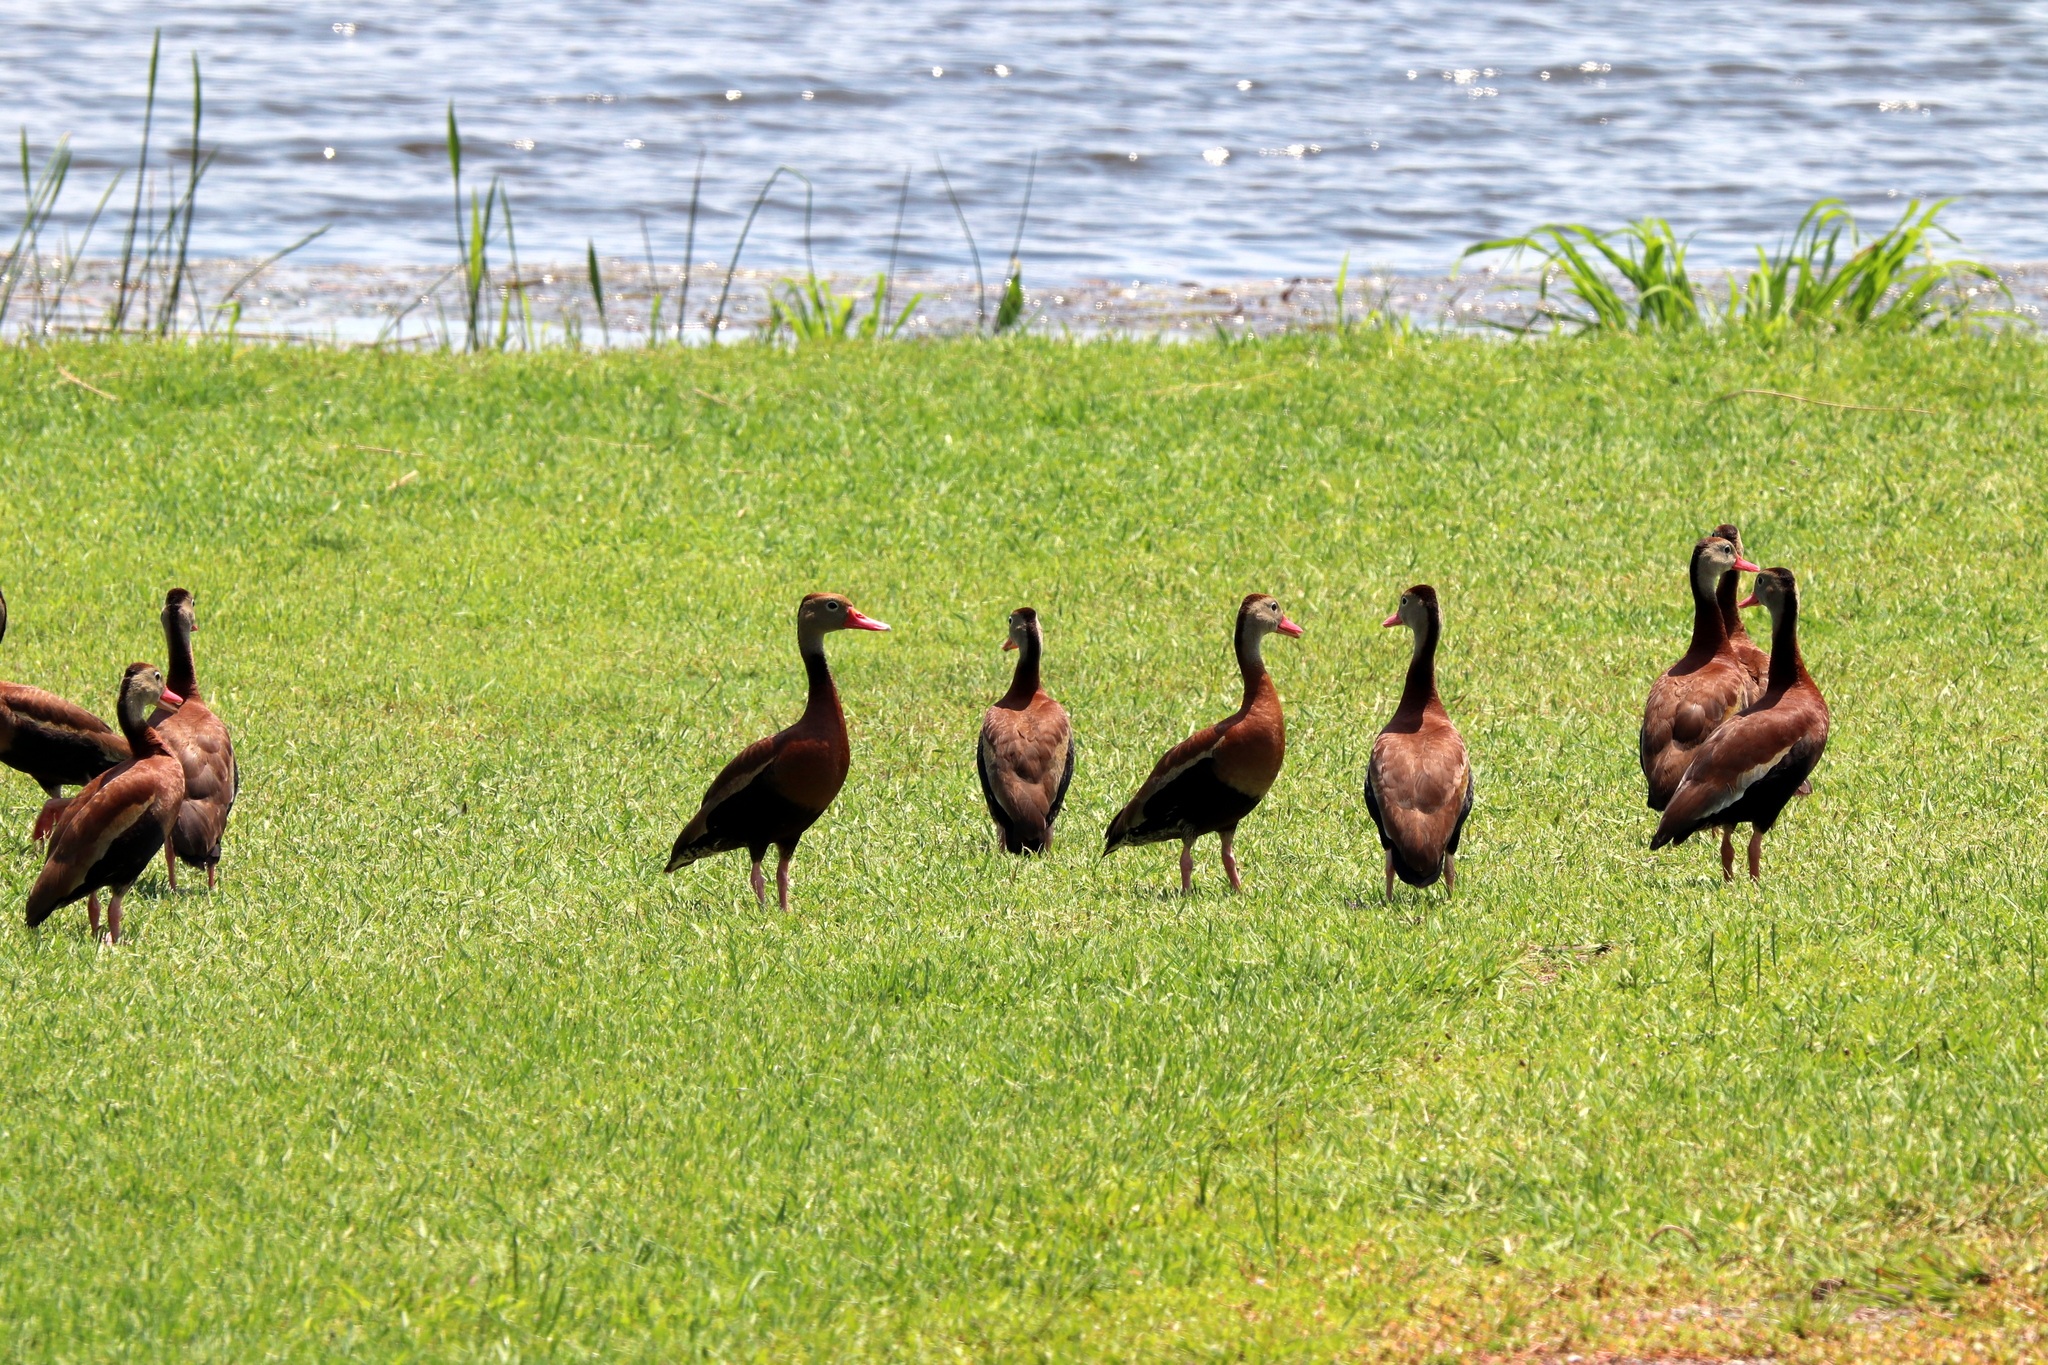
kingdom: Animalia
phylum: Chordata
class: Aves
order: Anseriformes
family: Anatidae
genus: Dendrocygna
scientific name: Dendrocygna autumnalis
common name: Black-bellied whistling duck
